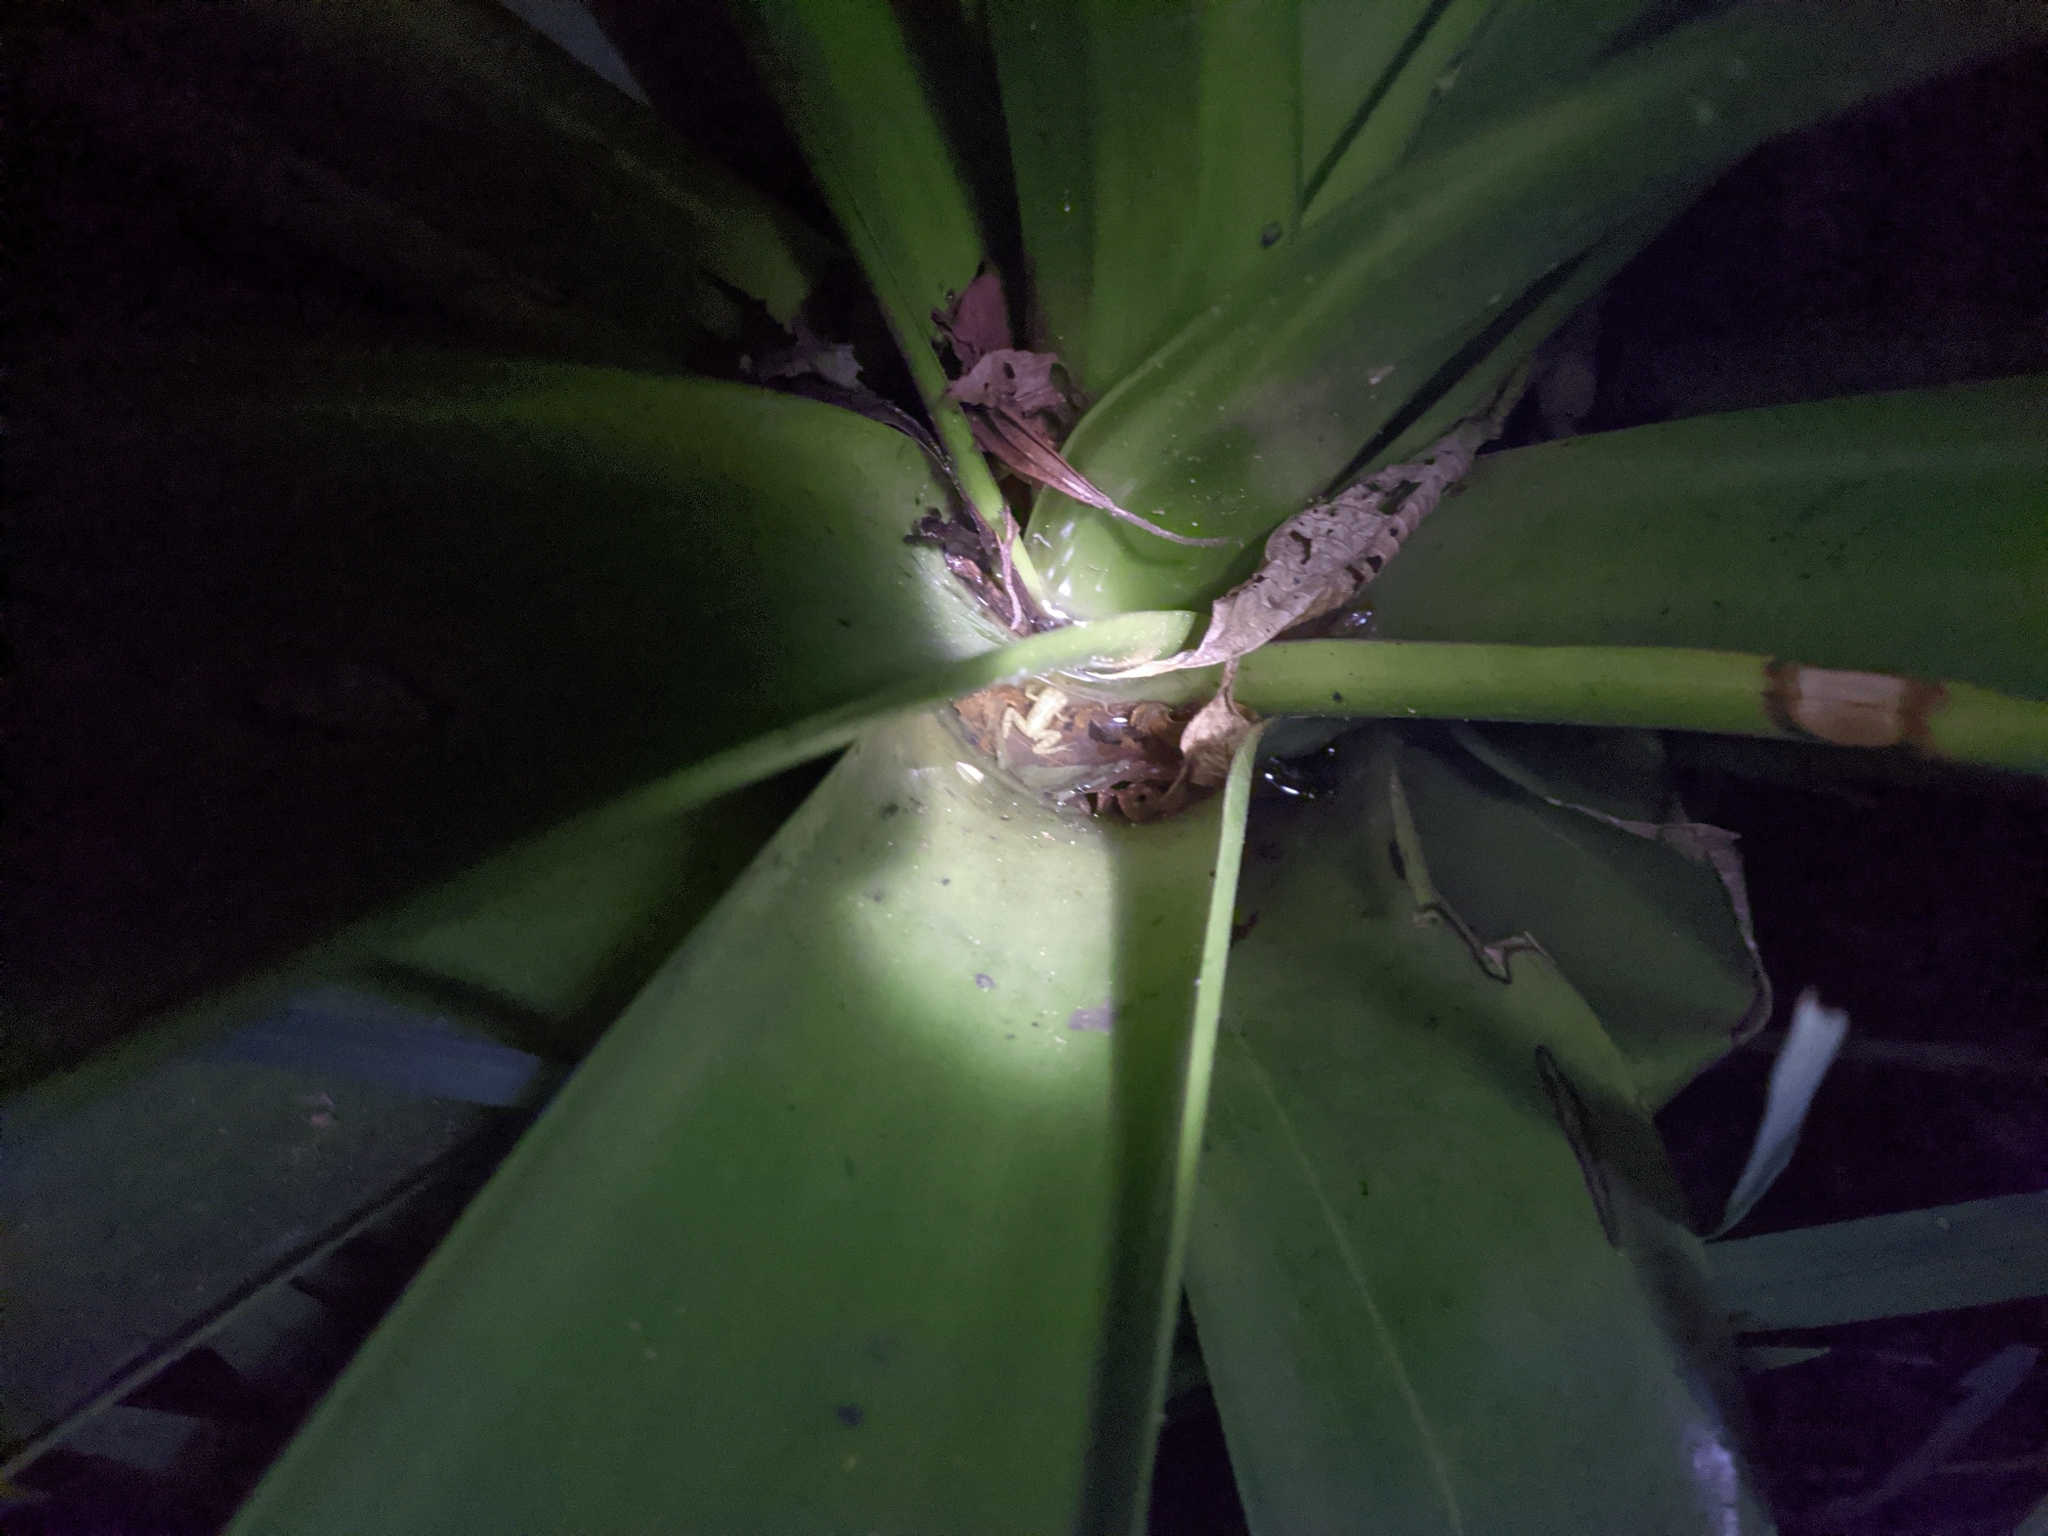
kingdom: Animalia
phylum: Chordata
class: Amphibia
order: Anura
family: Craugastoridae
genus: Tachiramantis
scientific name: Tachiramantis
